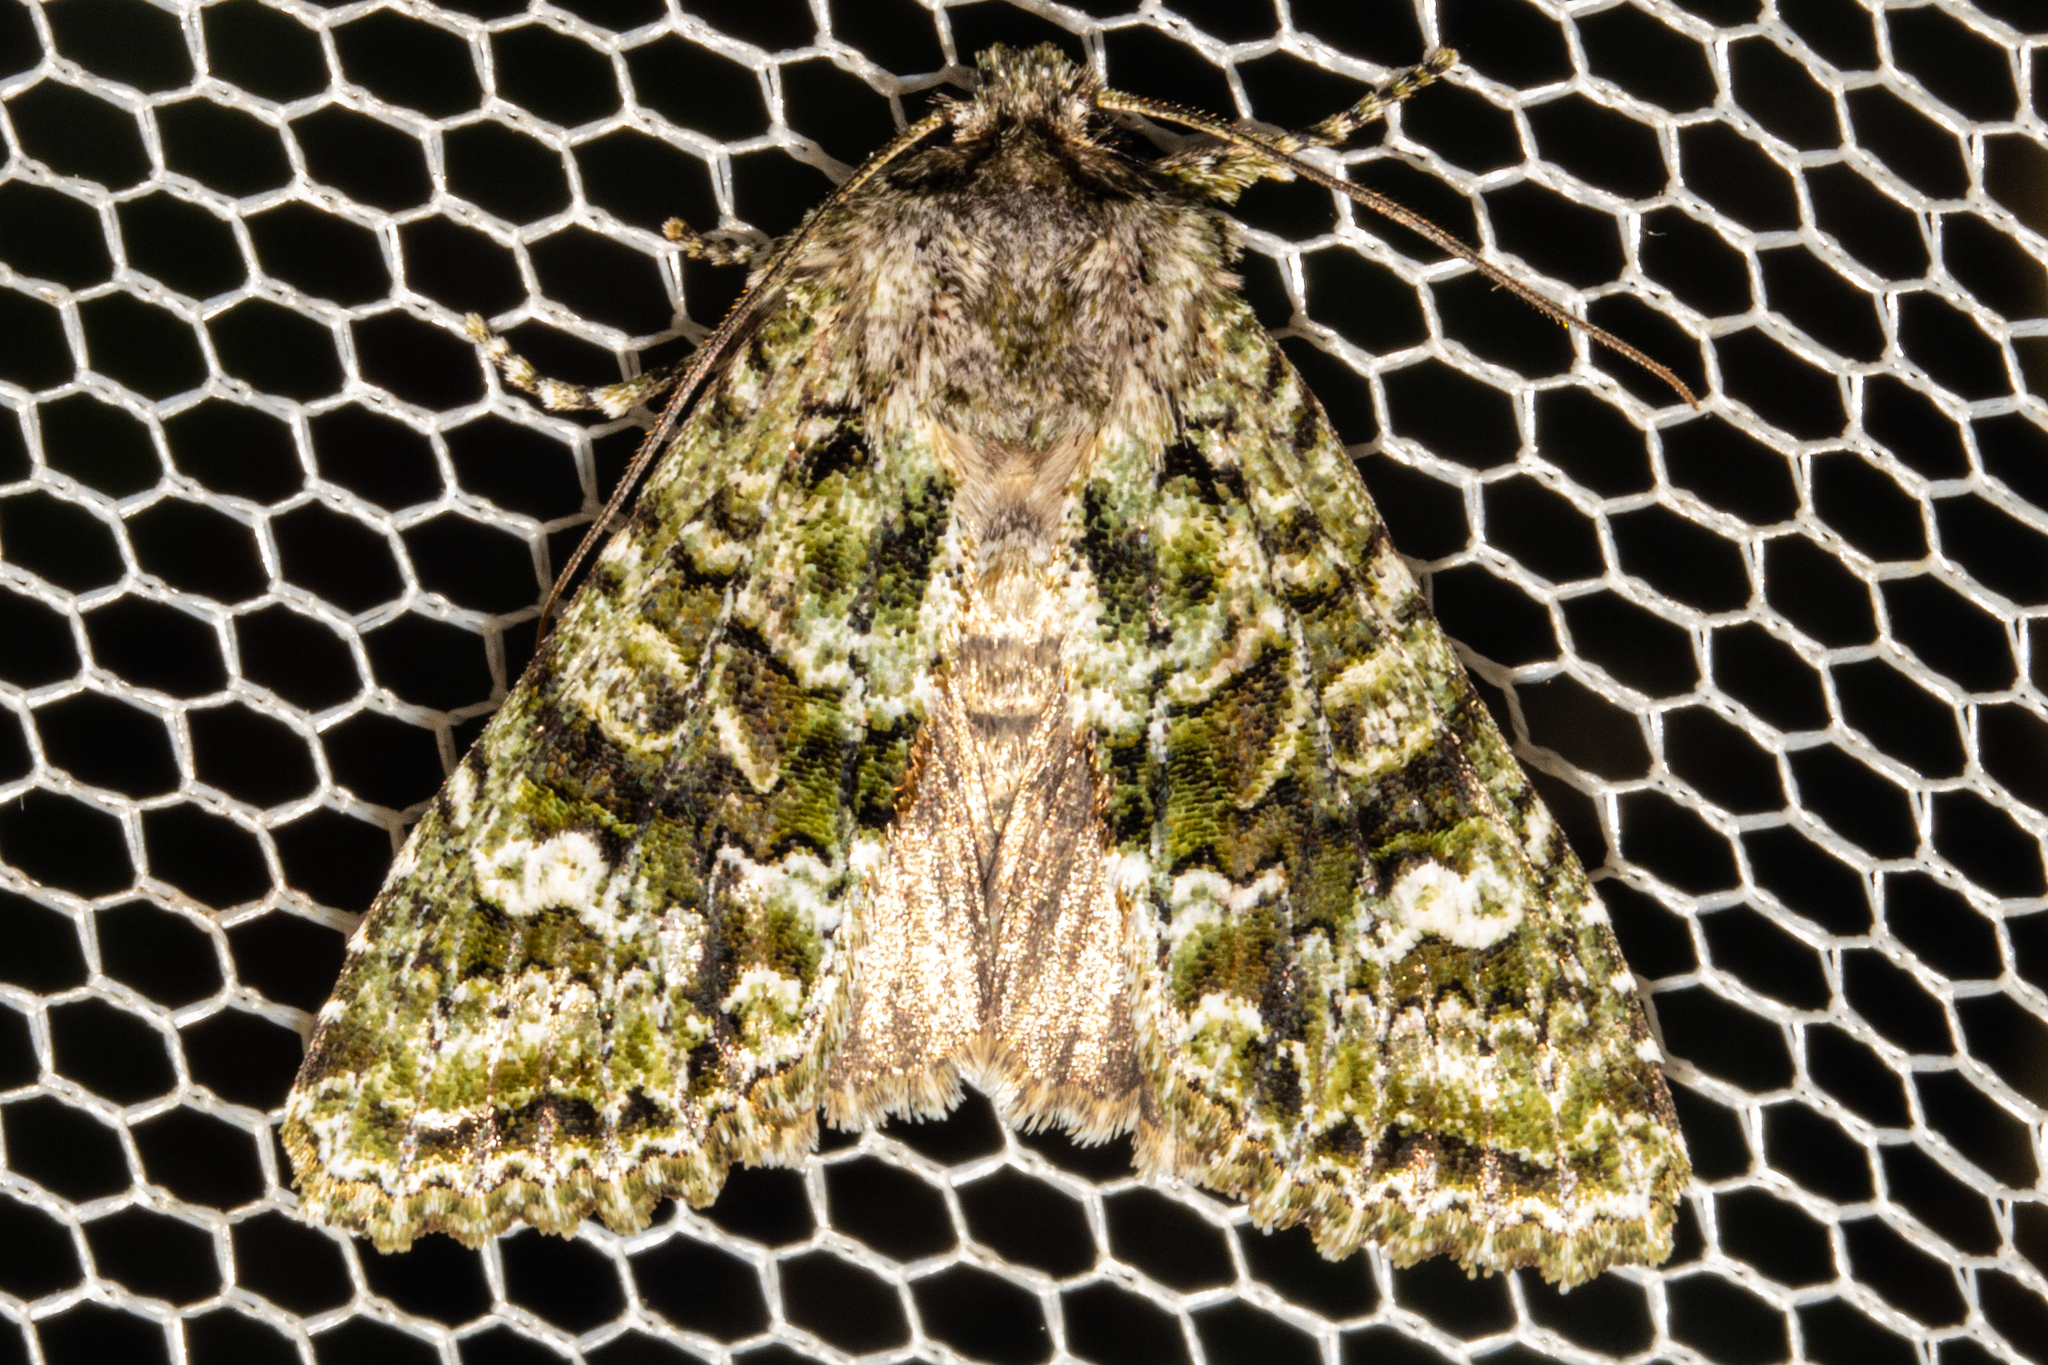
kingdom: Animalia
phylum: Arthropoda
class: Insecta
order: Lepidoptera
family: Noctuidae
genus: Ichneutica
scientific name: Ichneutica
